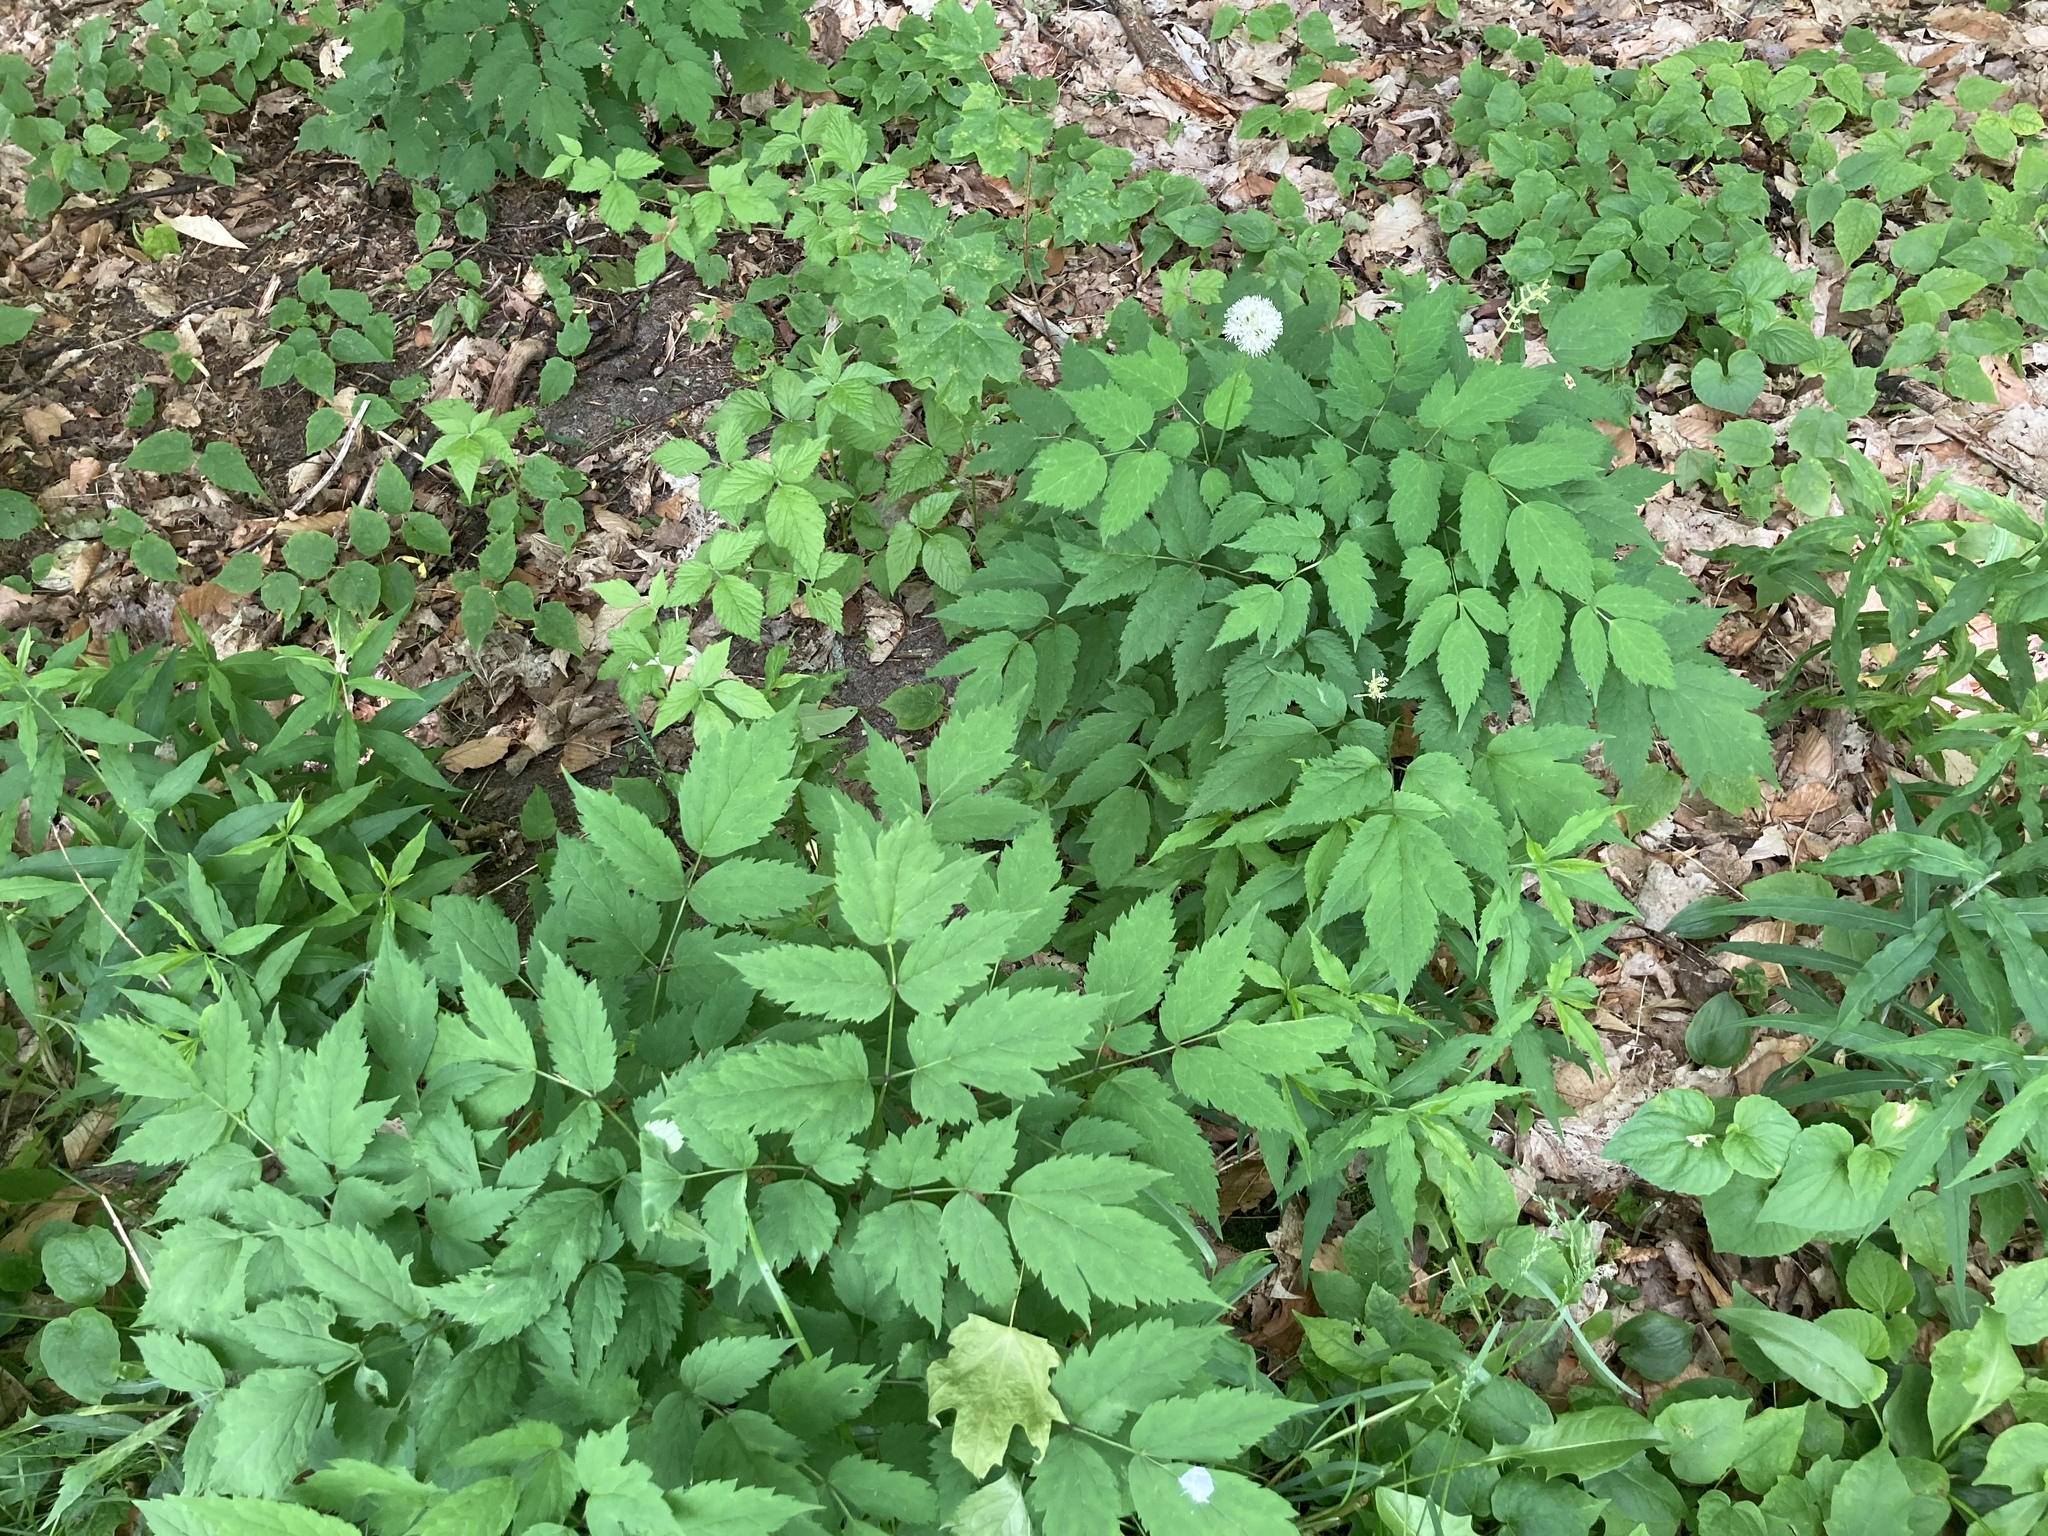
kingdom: Plantae
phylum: Tracheophyta
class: Magnoliopsida
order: Ranunculales
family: Ranunculaceae
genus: Actaea
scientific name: Actaea pachypoda
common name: Doll's-eyes
